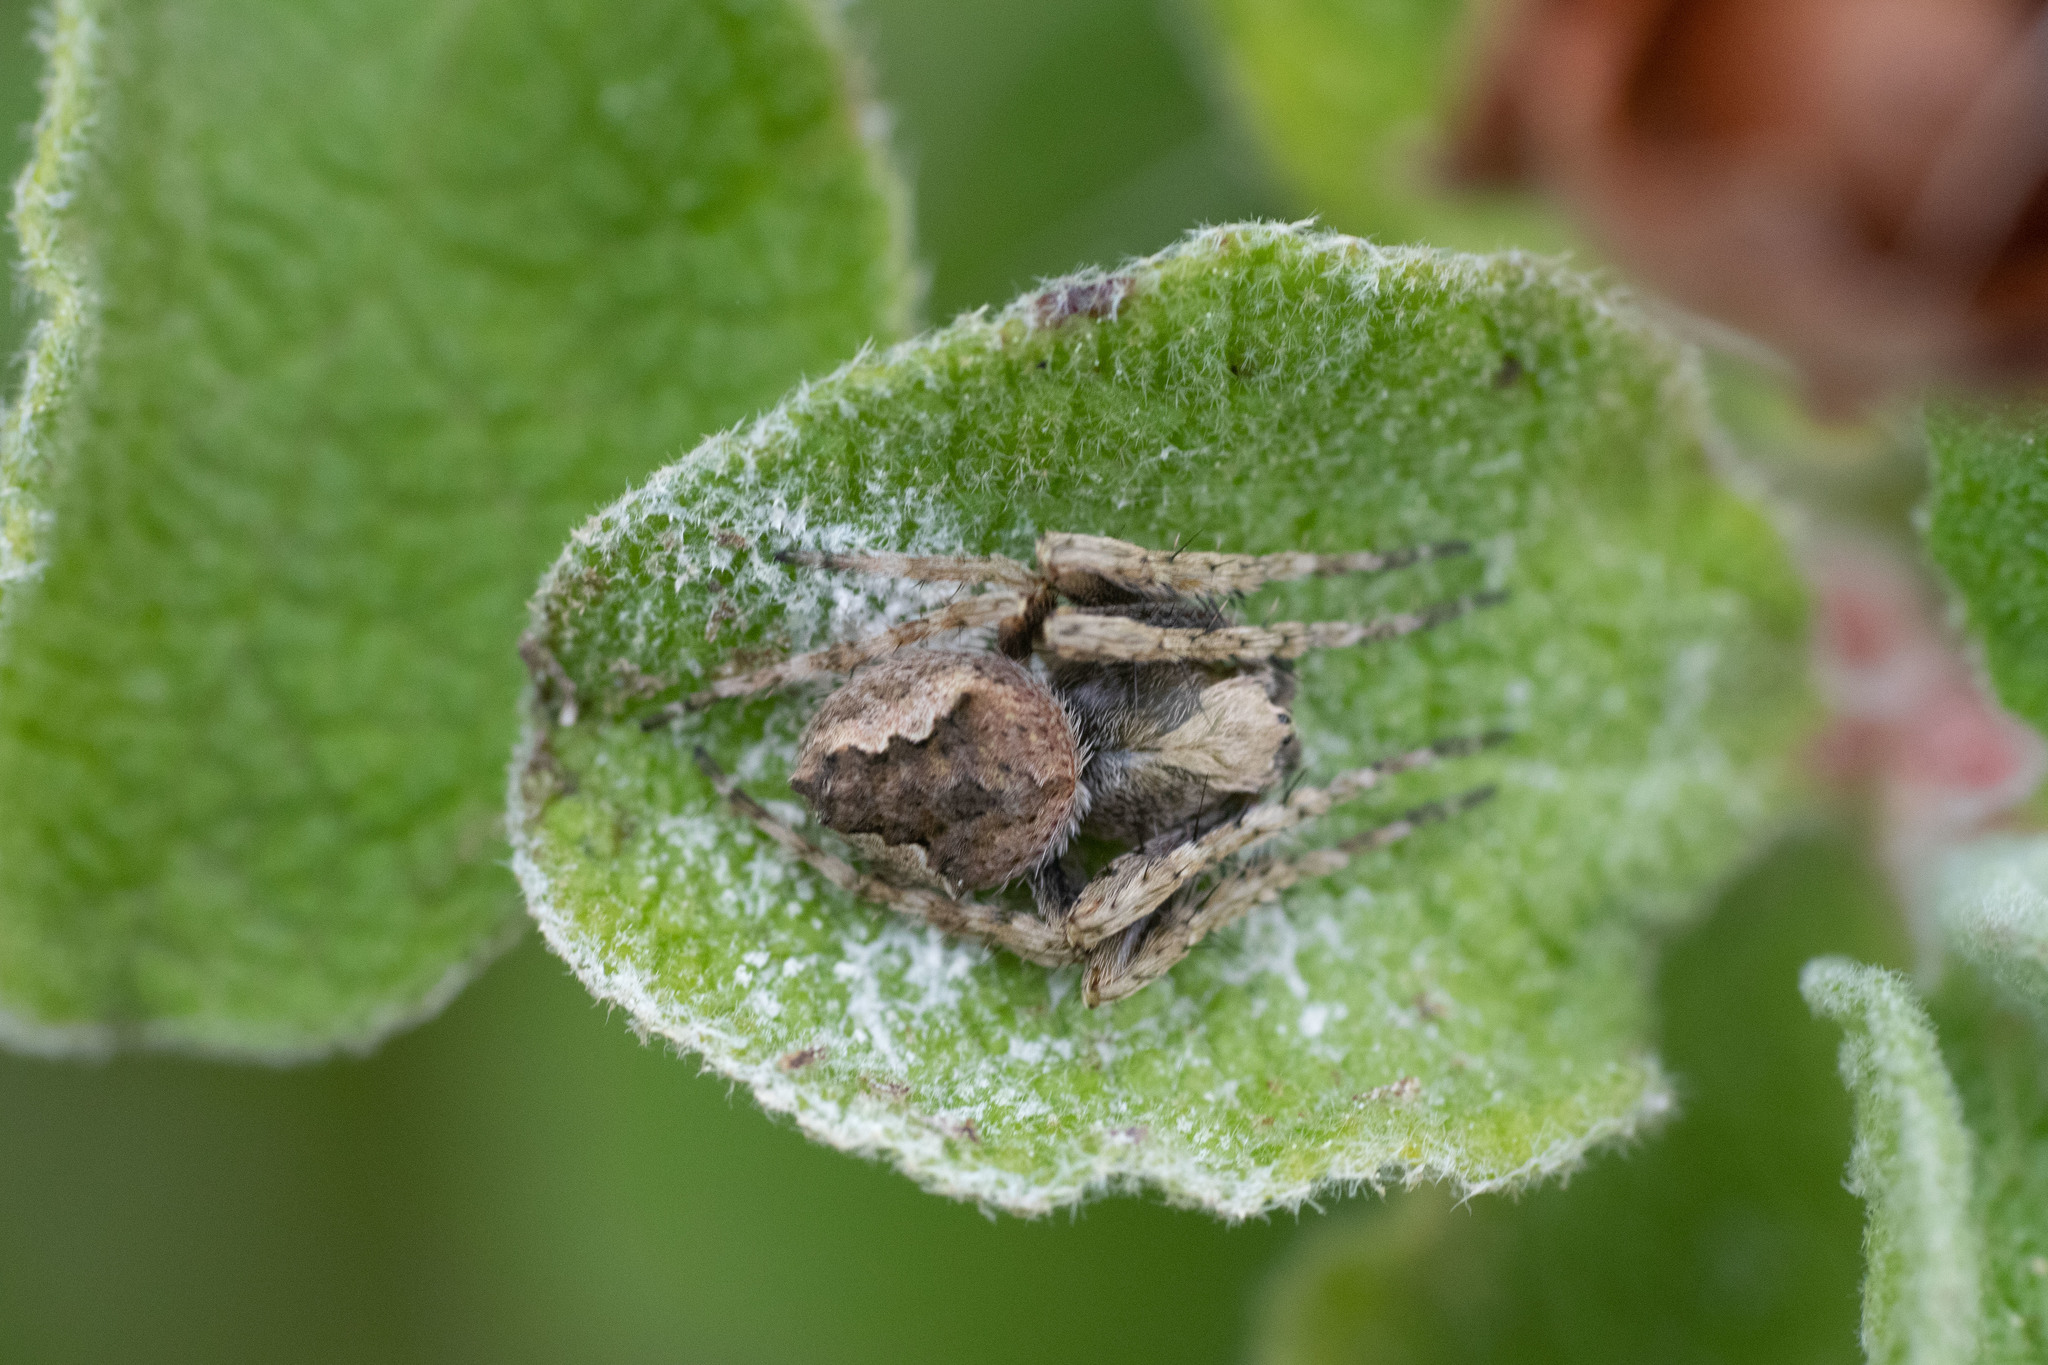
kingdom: Animalia
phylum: Arthropoda
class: Arachnida
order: Araneae
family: Araneidae
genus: Eriophora
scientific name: Eriophora pustulosa
